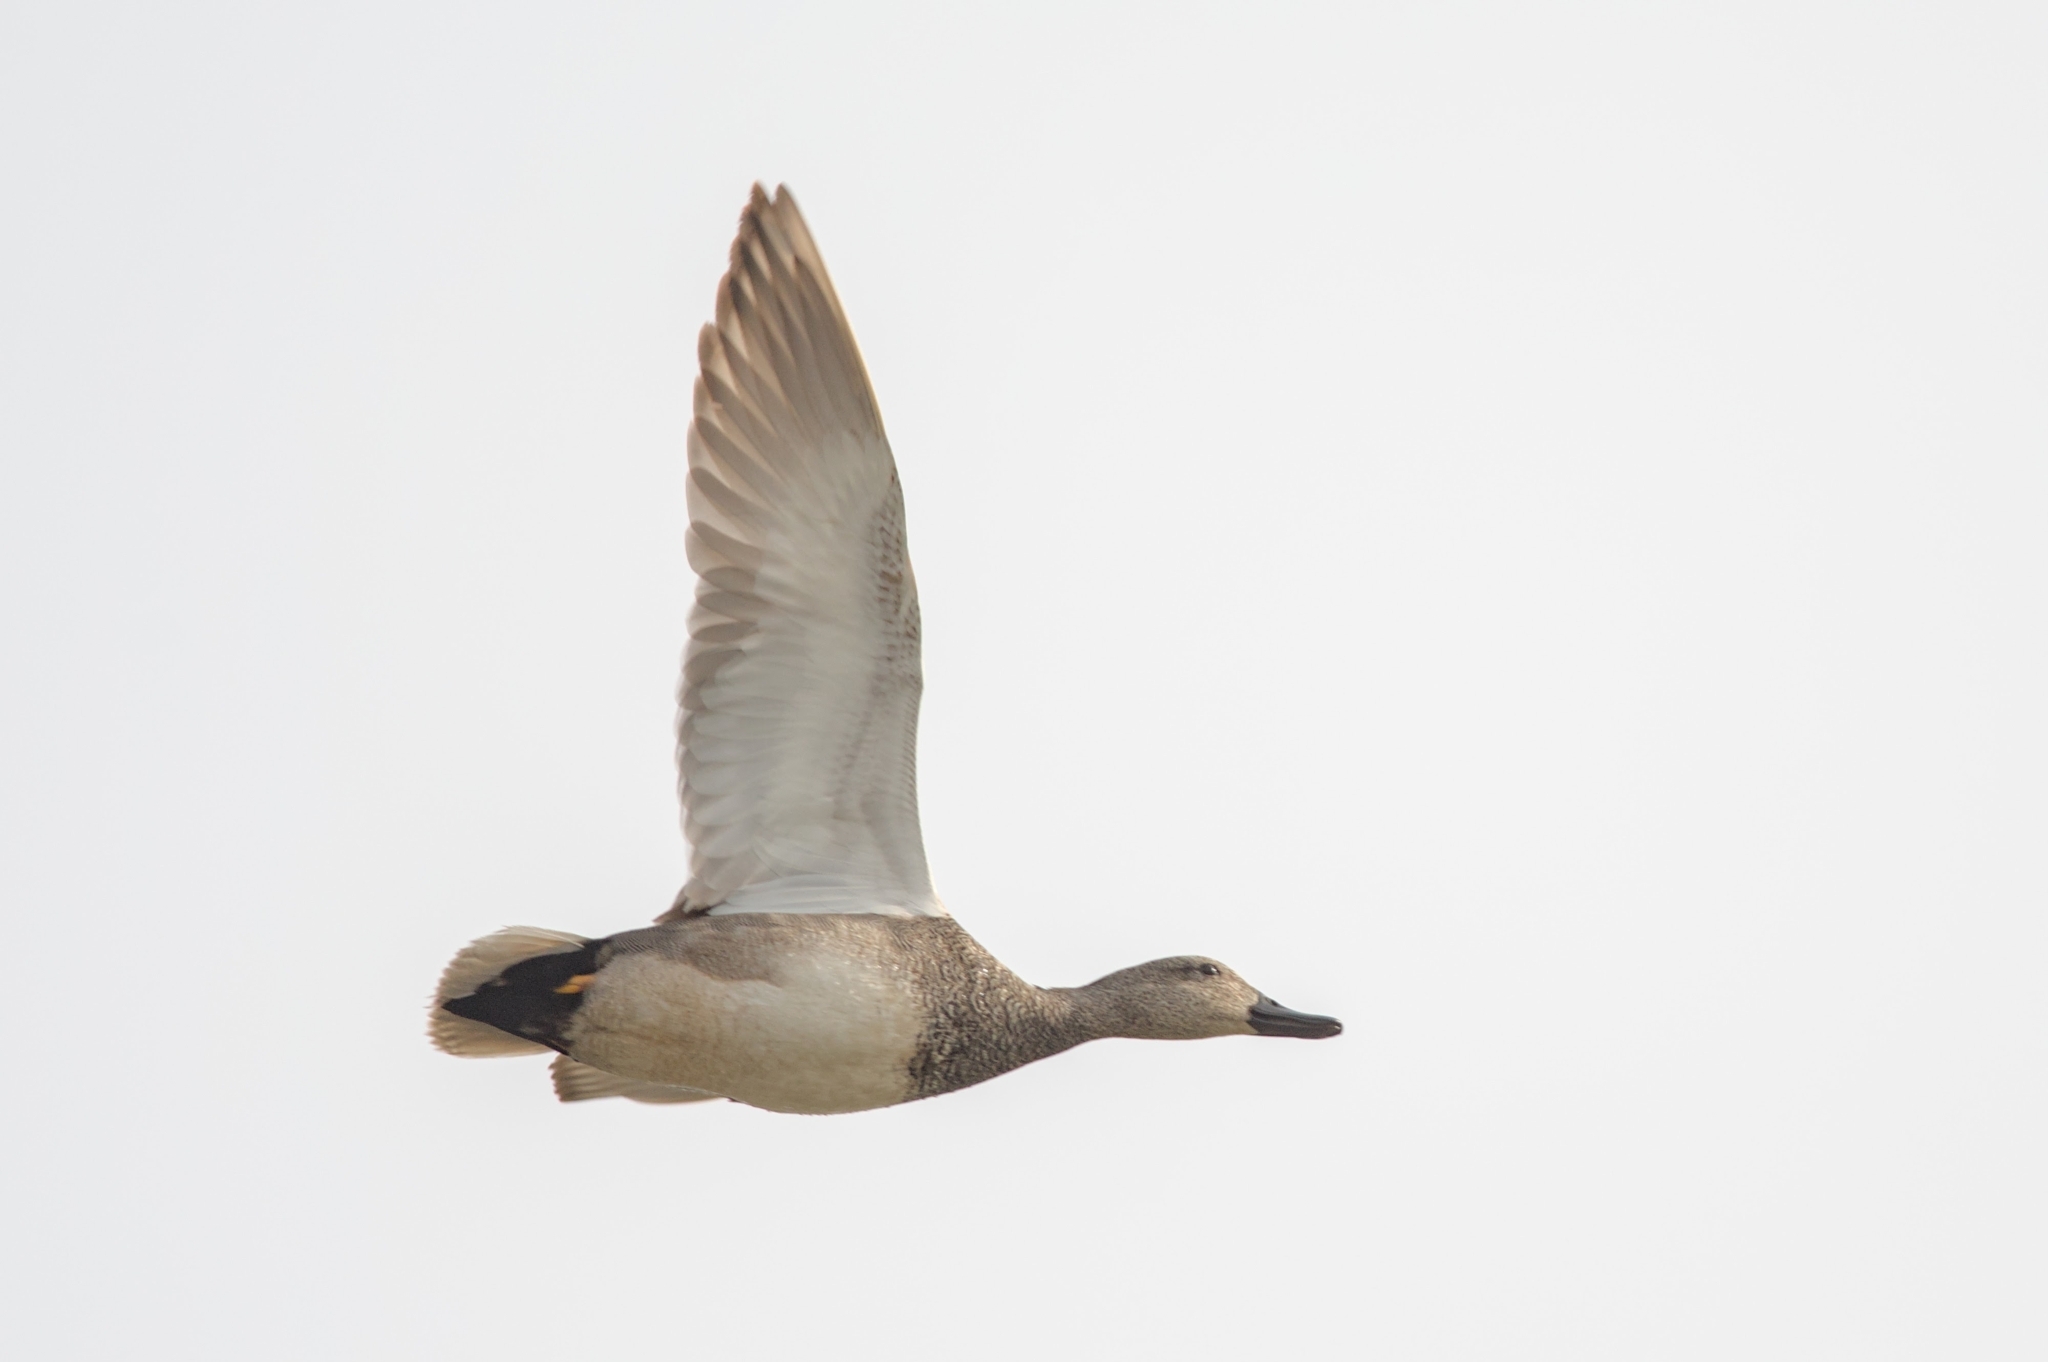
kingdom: Animalia
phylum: Chordata
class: Aves
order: Anseriformes
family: Anatidae
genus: Mareca
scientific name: Mareca strepera
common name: Gadwall
